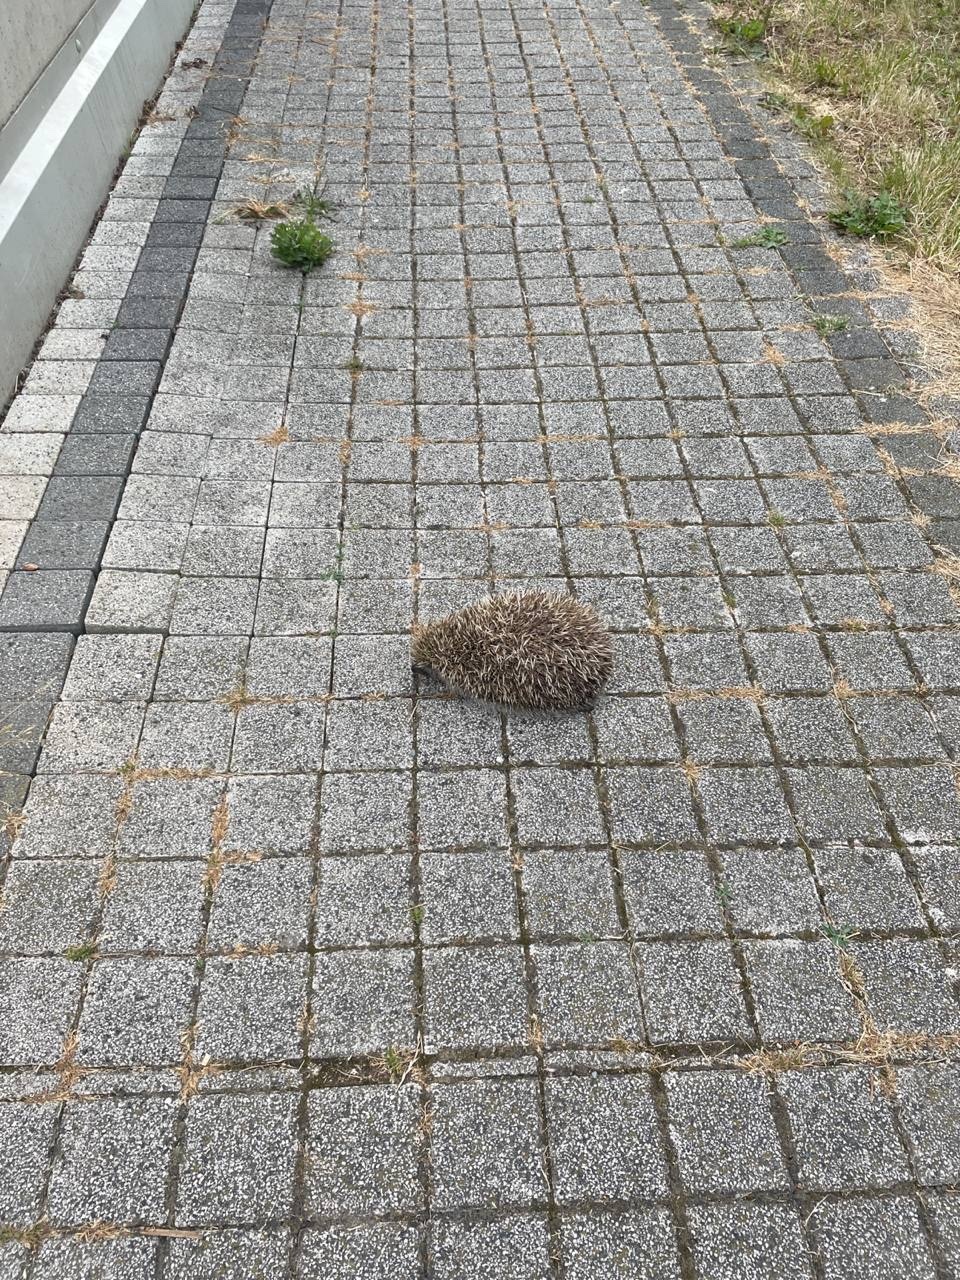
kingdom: Animalia
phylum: Chordata
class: Mammalia
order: Erinaceomorpha
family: Erinaceidae
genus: Erinaceus
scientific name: Erinaceus roumanicus
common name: Northern white-breasted hedgehog
